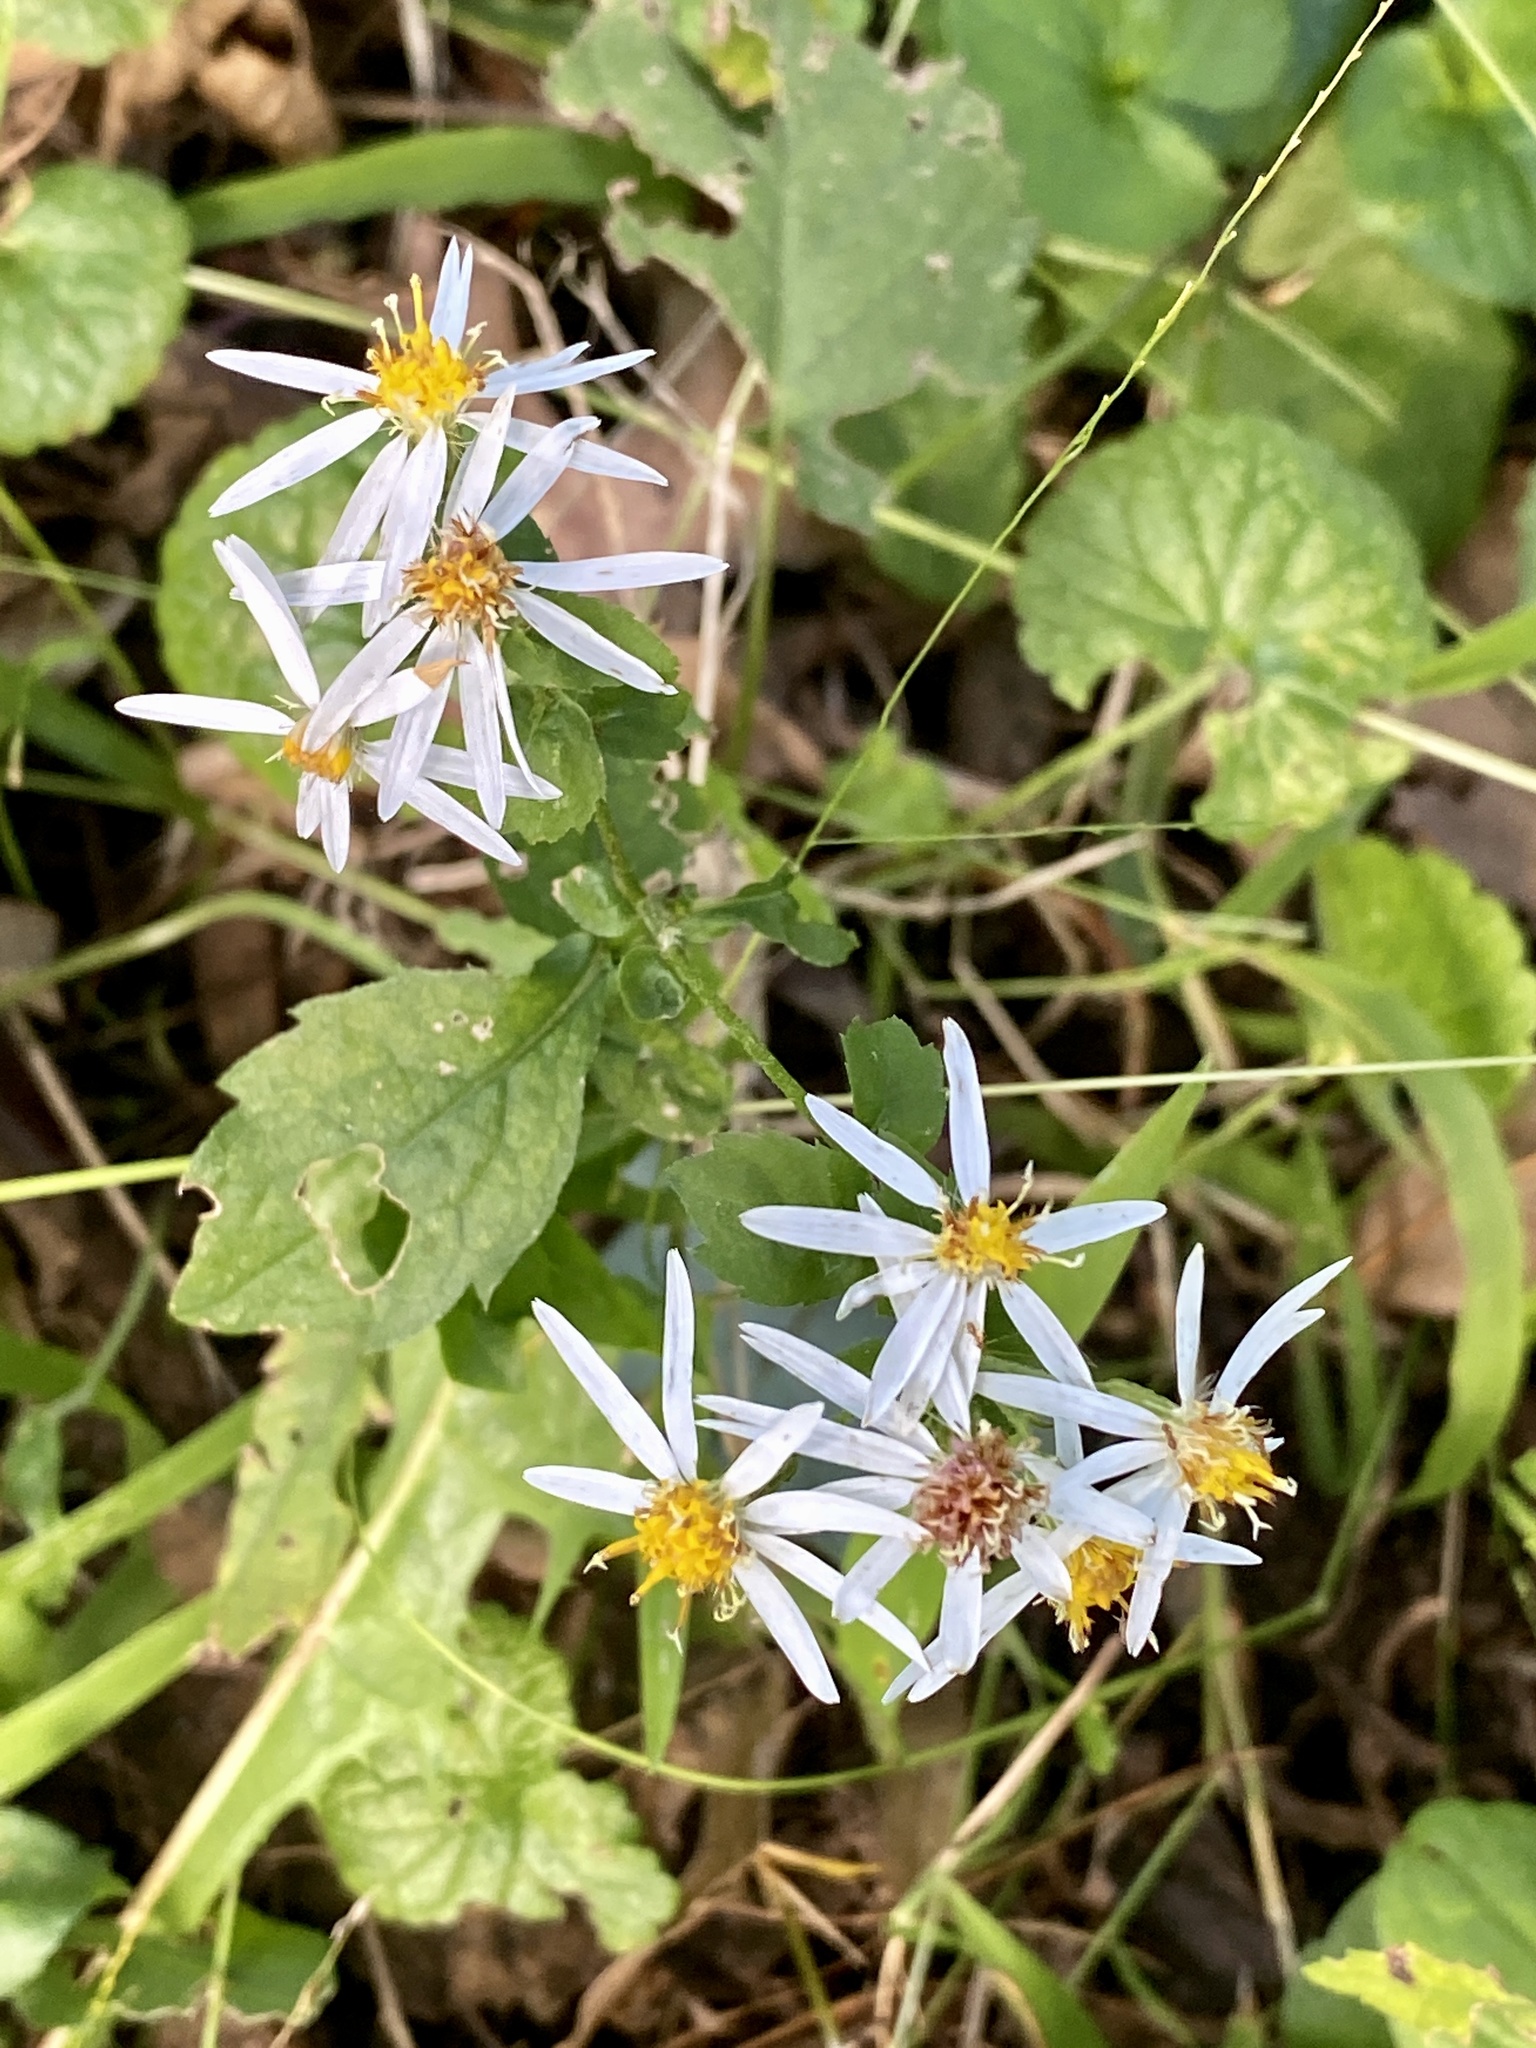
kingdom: Plantae
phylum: Tracheophyta
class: Magnoliopsida
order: Asterales
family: Asteraceae
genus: Eurybia
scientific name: Eurybia divaricata
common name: White wood aster
